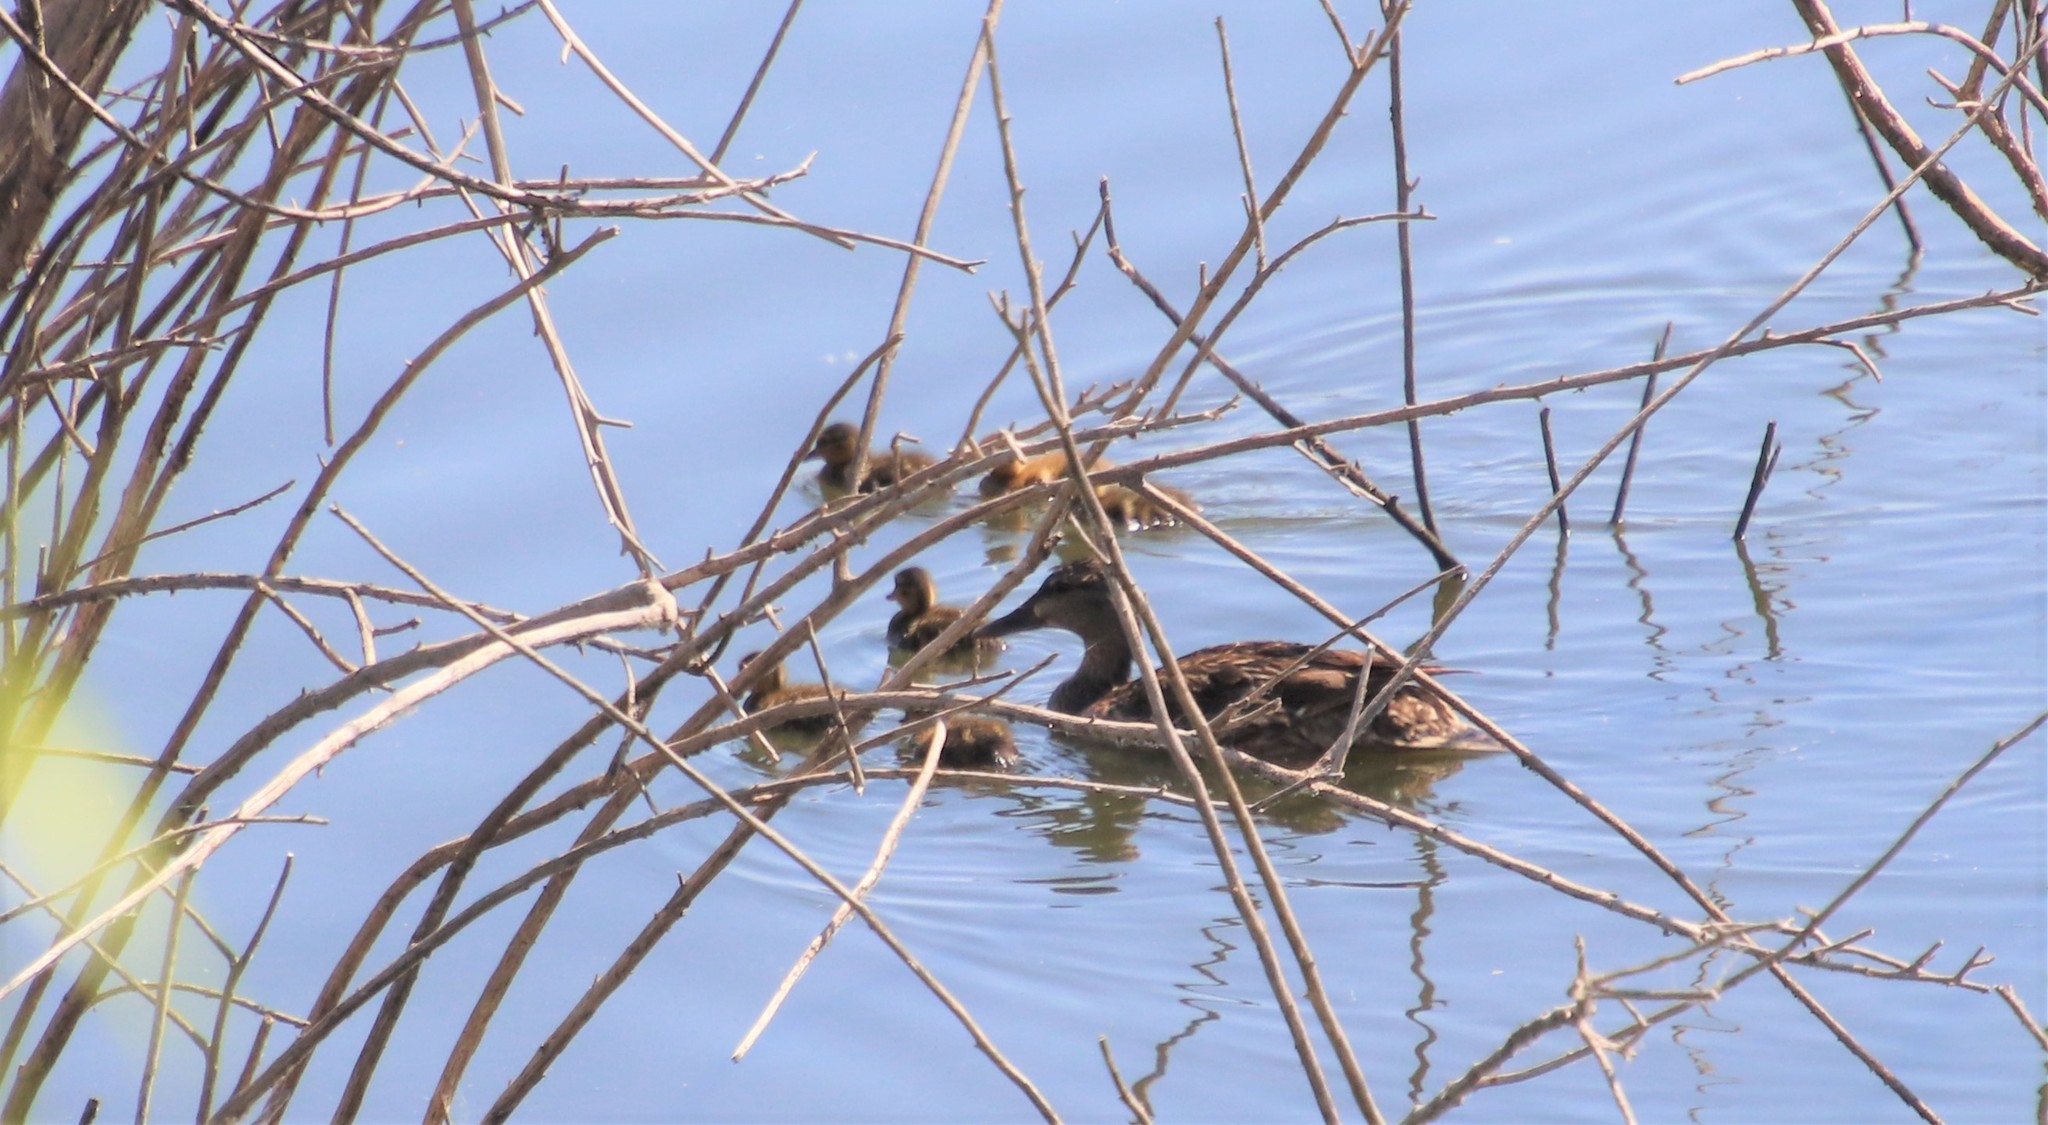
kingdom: Animalia
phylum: Chordata
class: Aves
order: Anseriformes
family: Anatidae
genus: Anas
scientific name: Anas platyrhynchos
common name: Mallard
